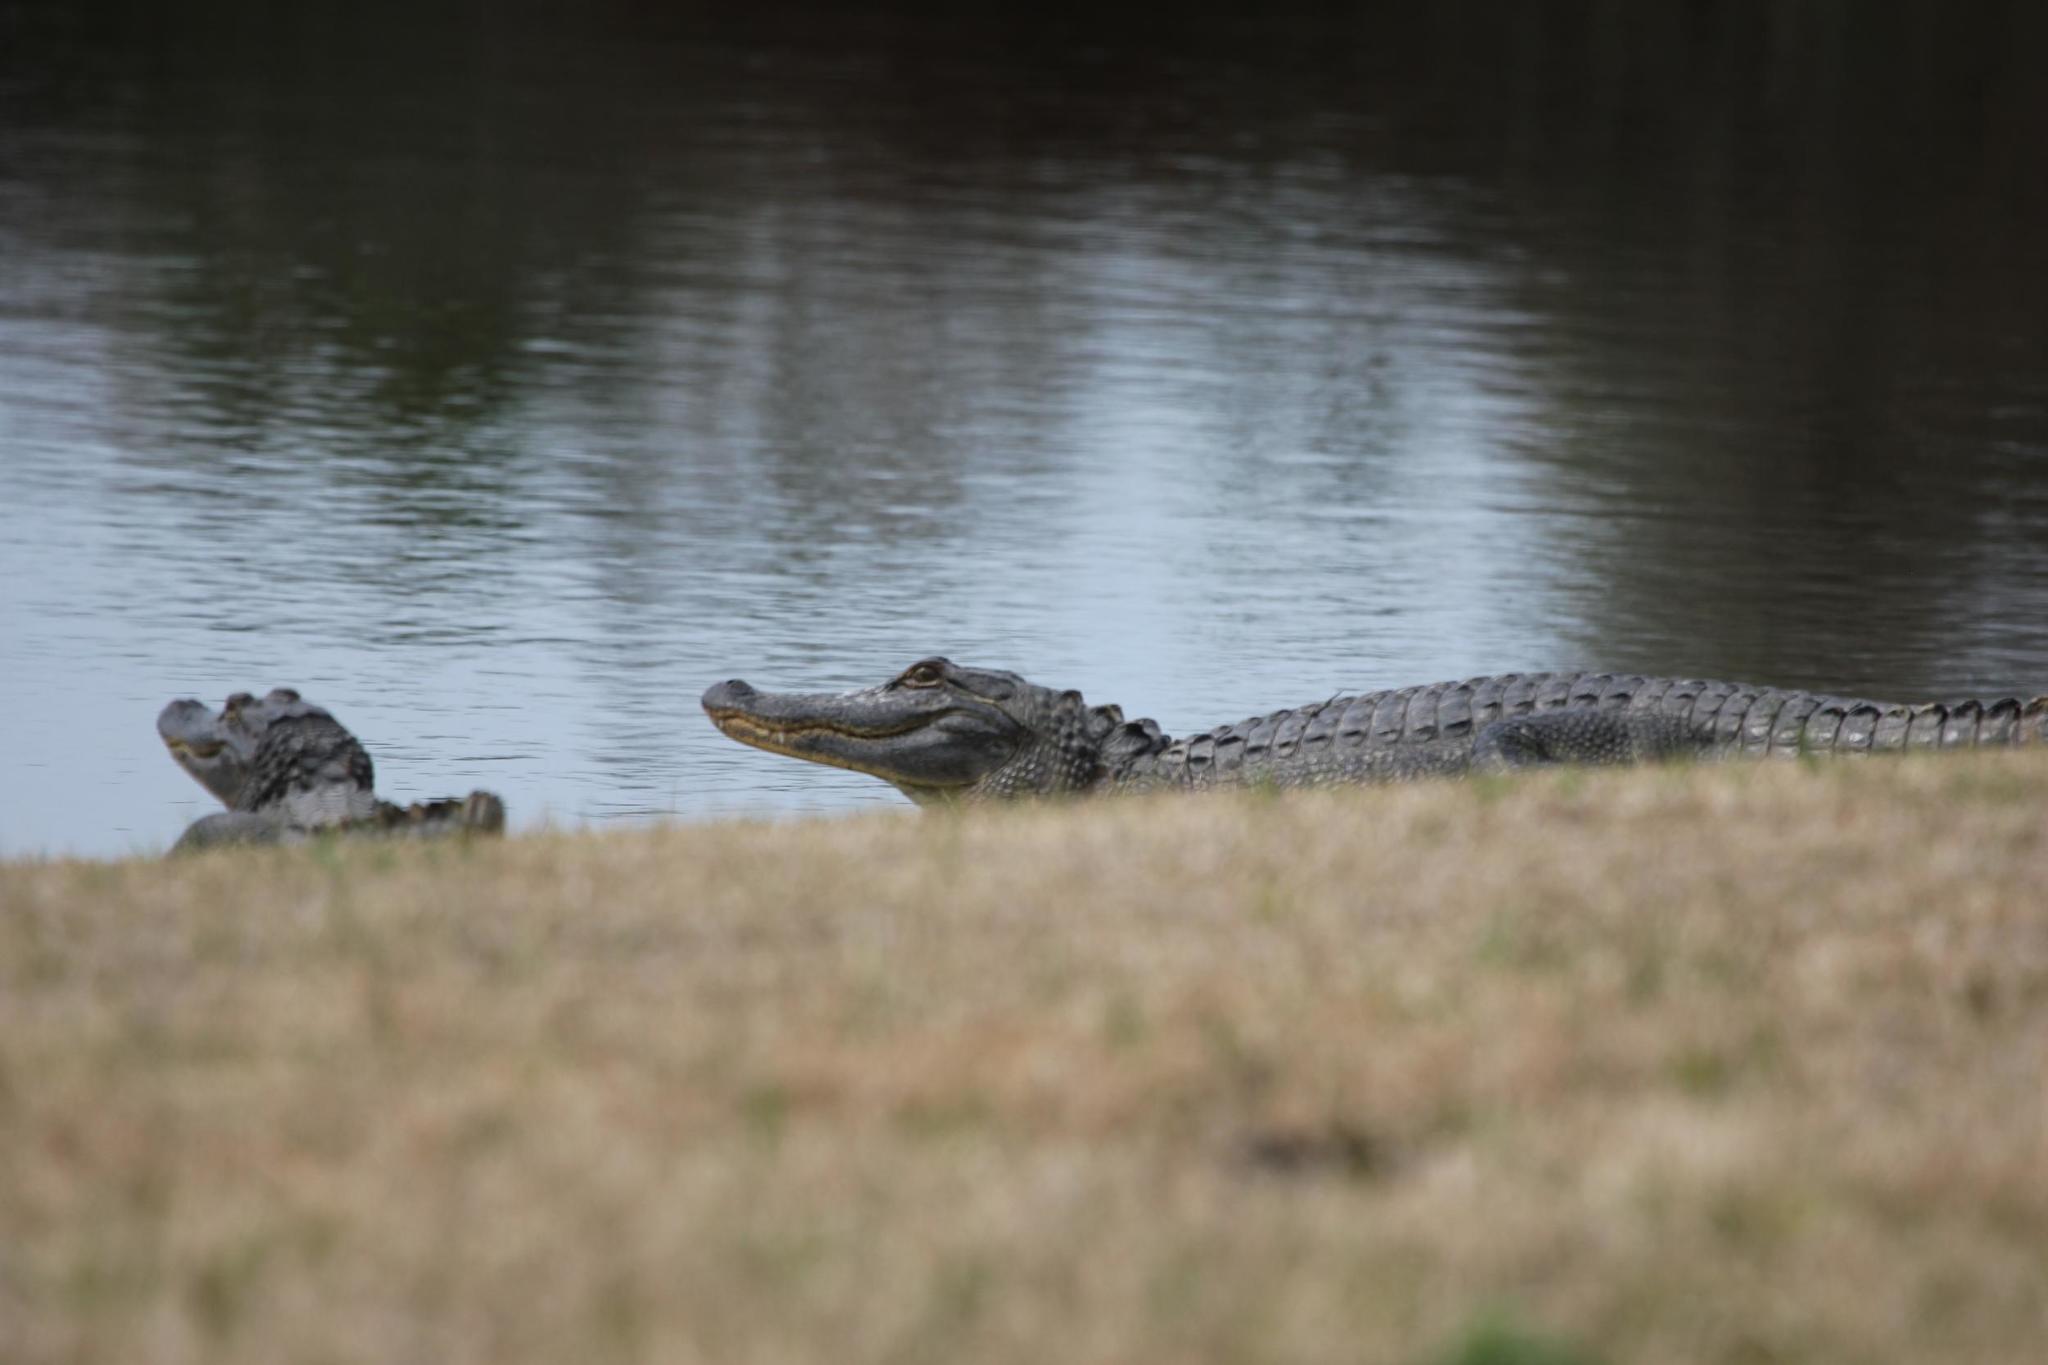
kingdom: Animalia
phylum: Chordata
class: Crocodylia
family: Alligatoridae
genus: Alligator
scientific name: Alligator mississippiensis
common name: American alligator
